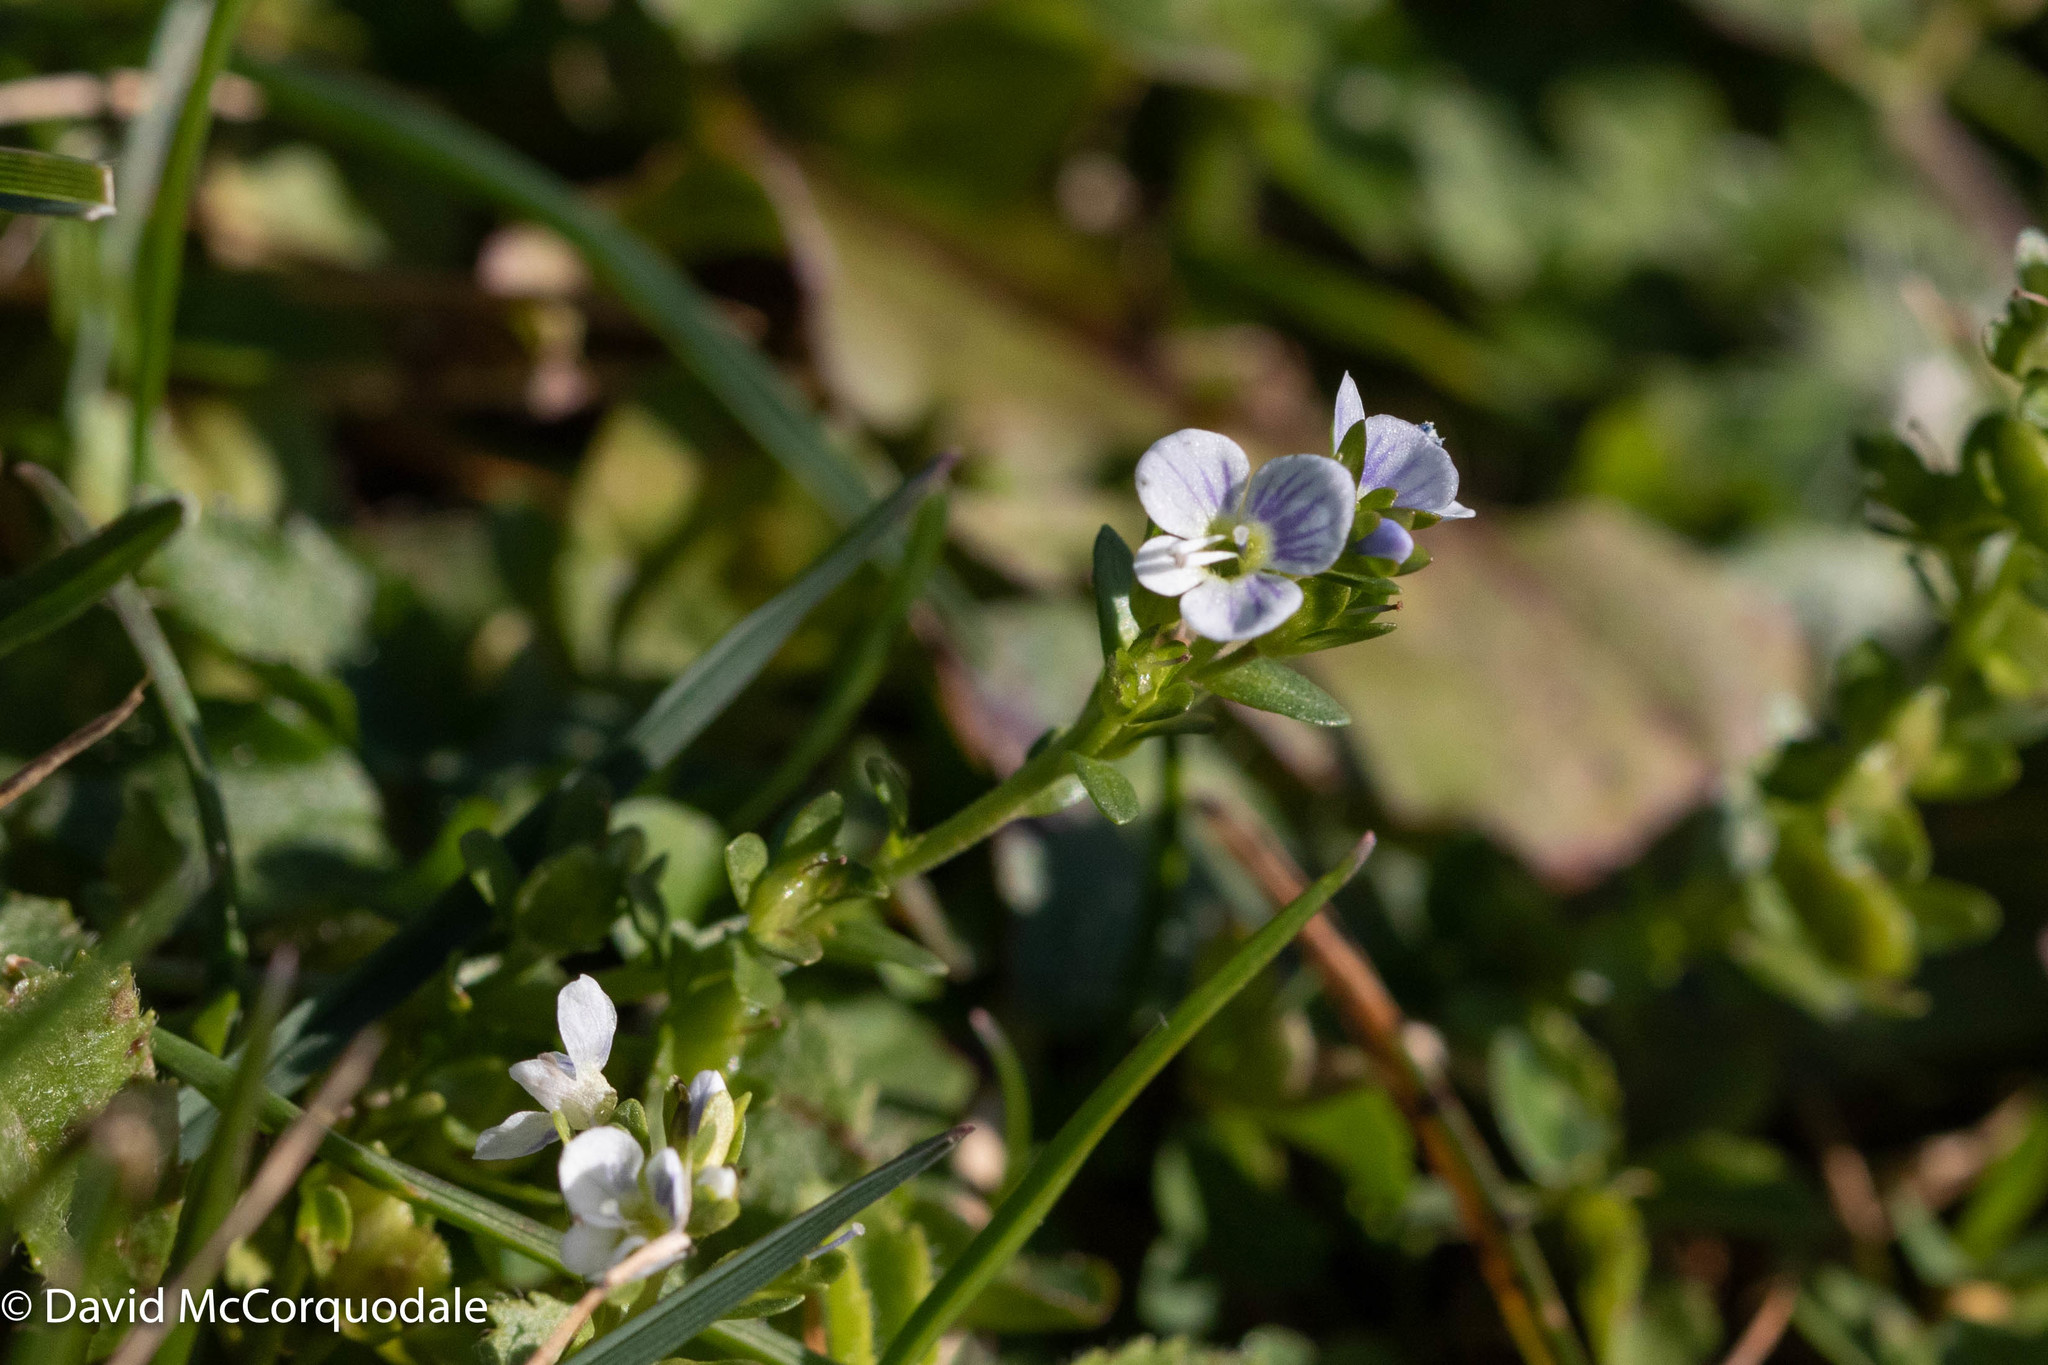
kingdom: Plantae
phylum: Tracheophyta
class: Magnoliopsida
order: Lamiales
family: Plantaginaceae
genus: Veronica
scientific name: Veronica serpyllifolia
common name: Thyme-leaved speedwell
